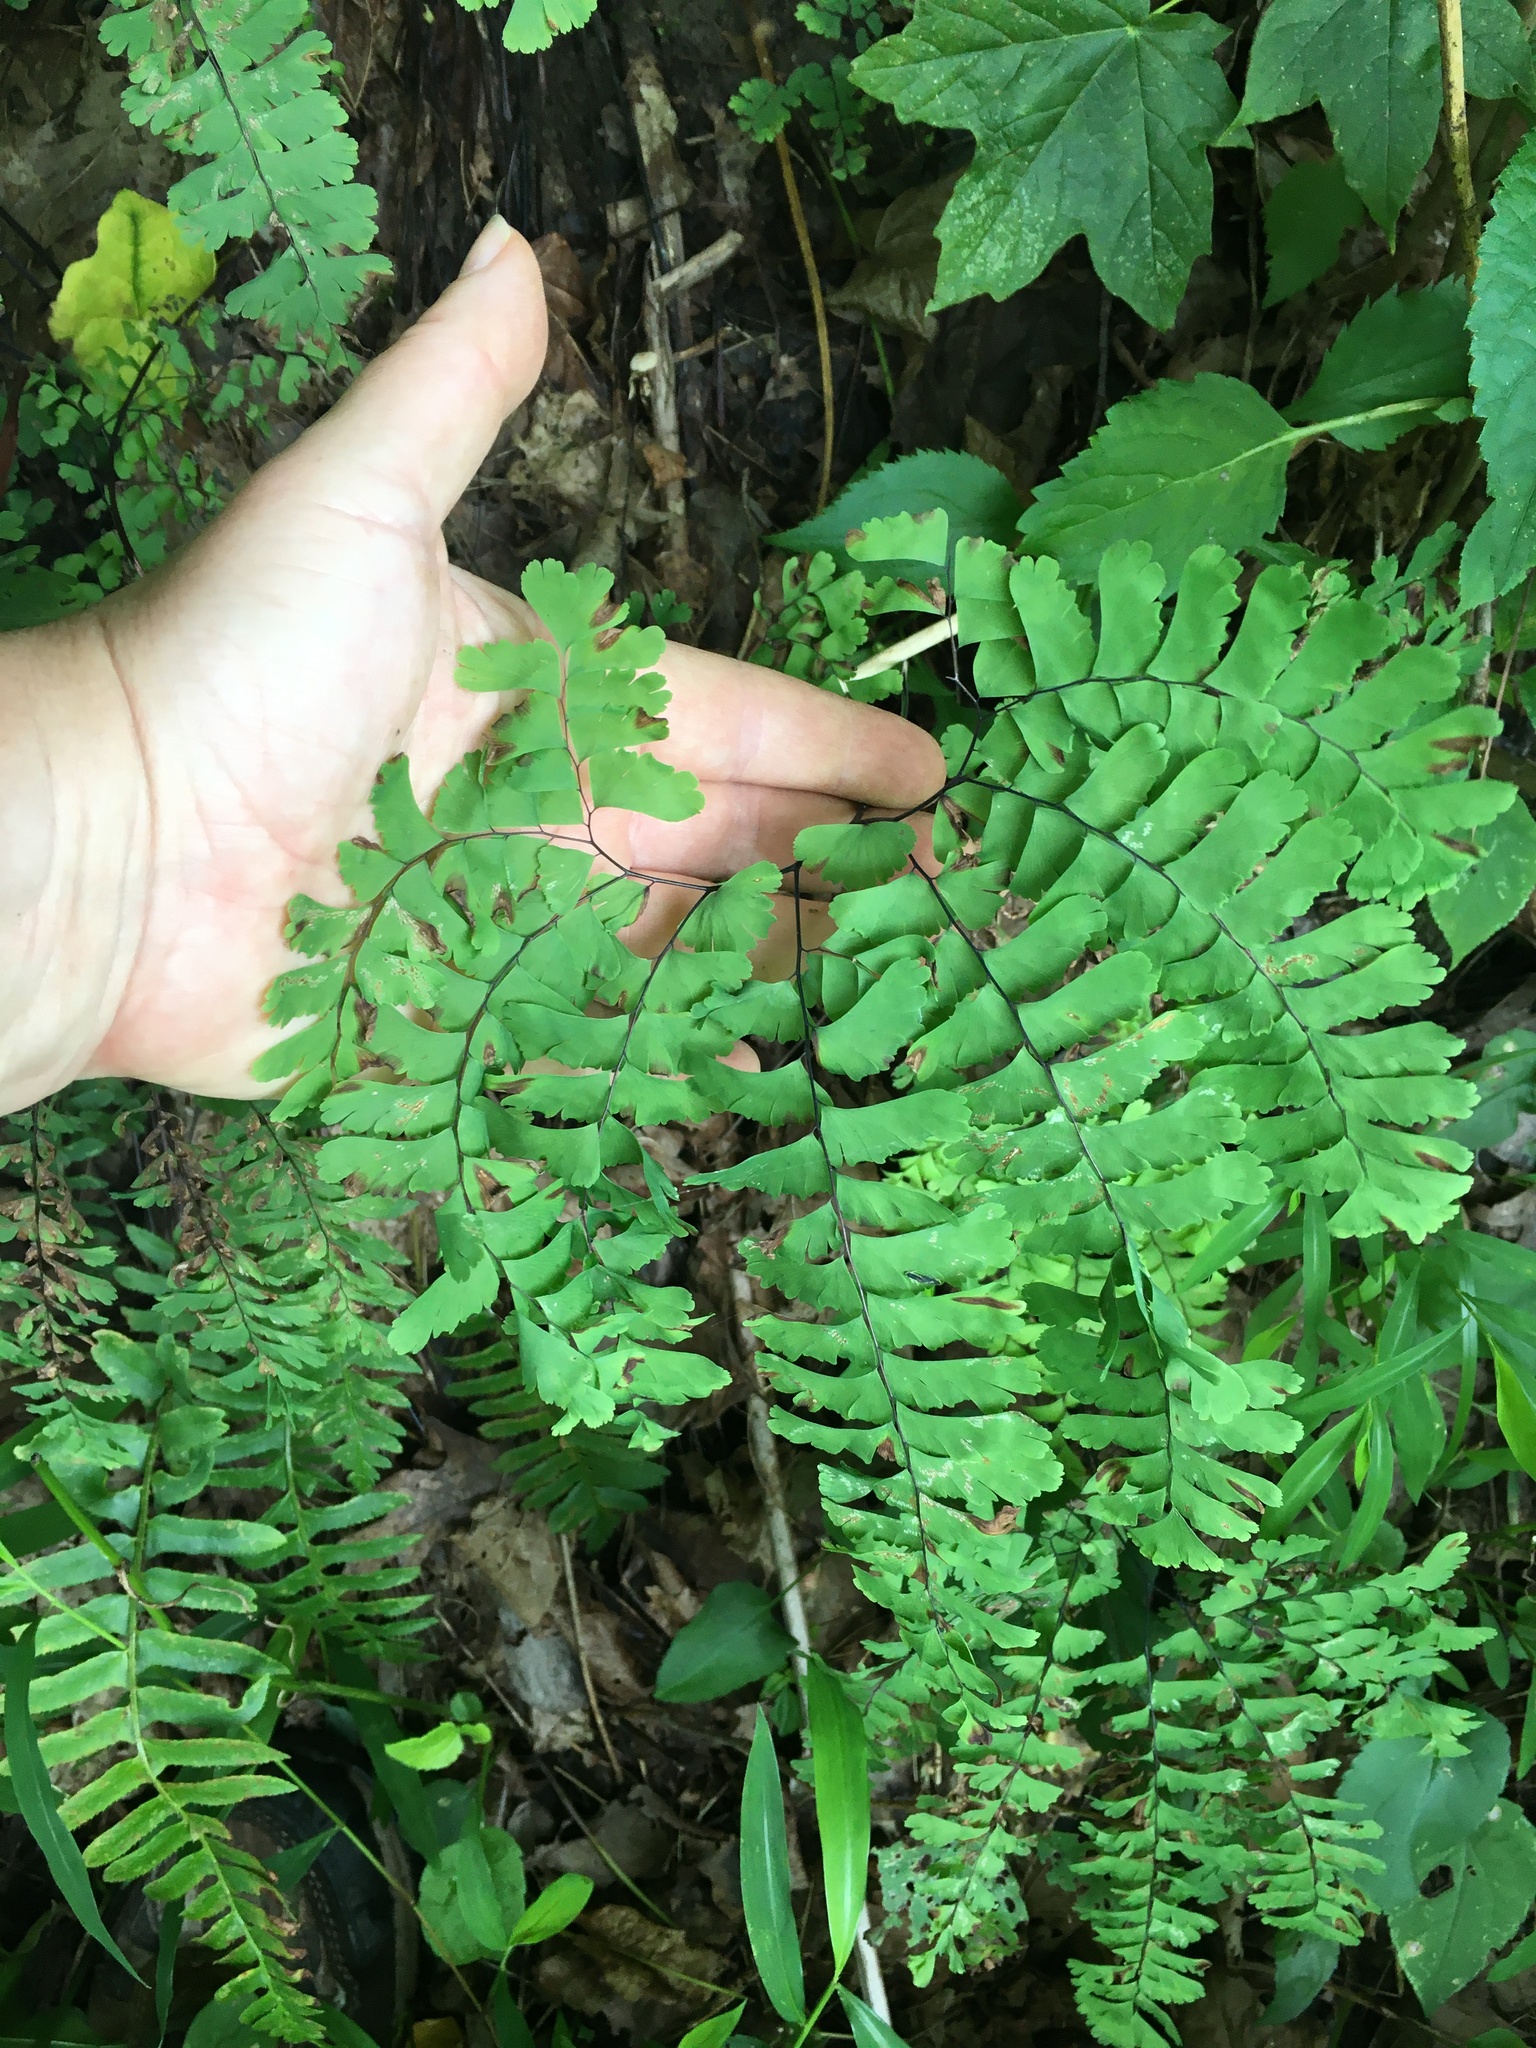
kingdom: Plantae
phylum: Tracheophyta
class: Polypodiopsida
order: Polypodiales
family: Pteridaceae
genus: Adiantum
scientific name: Adiantum pedatum
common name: Five-finger fern
